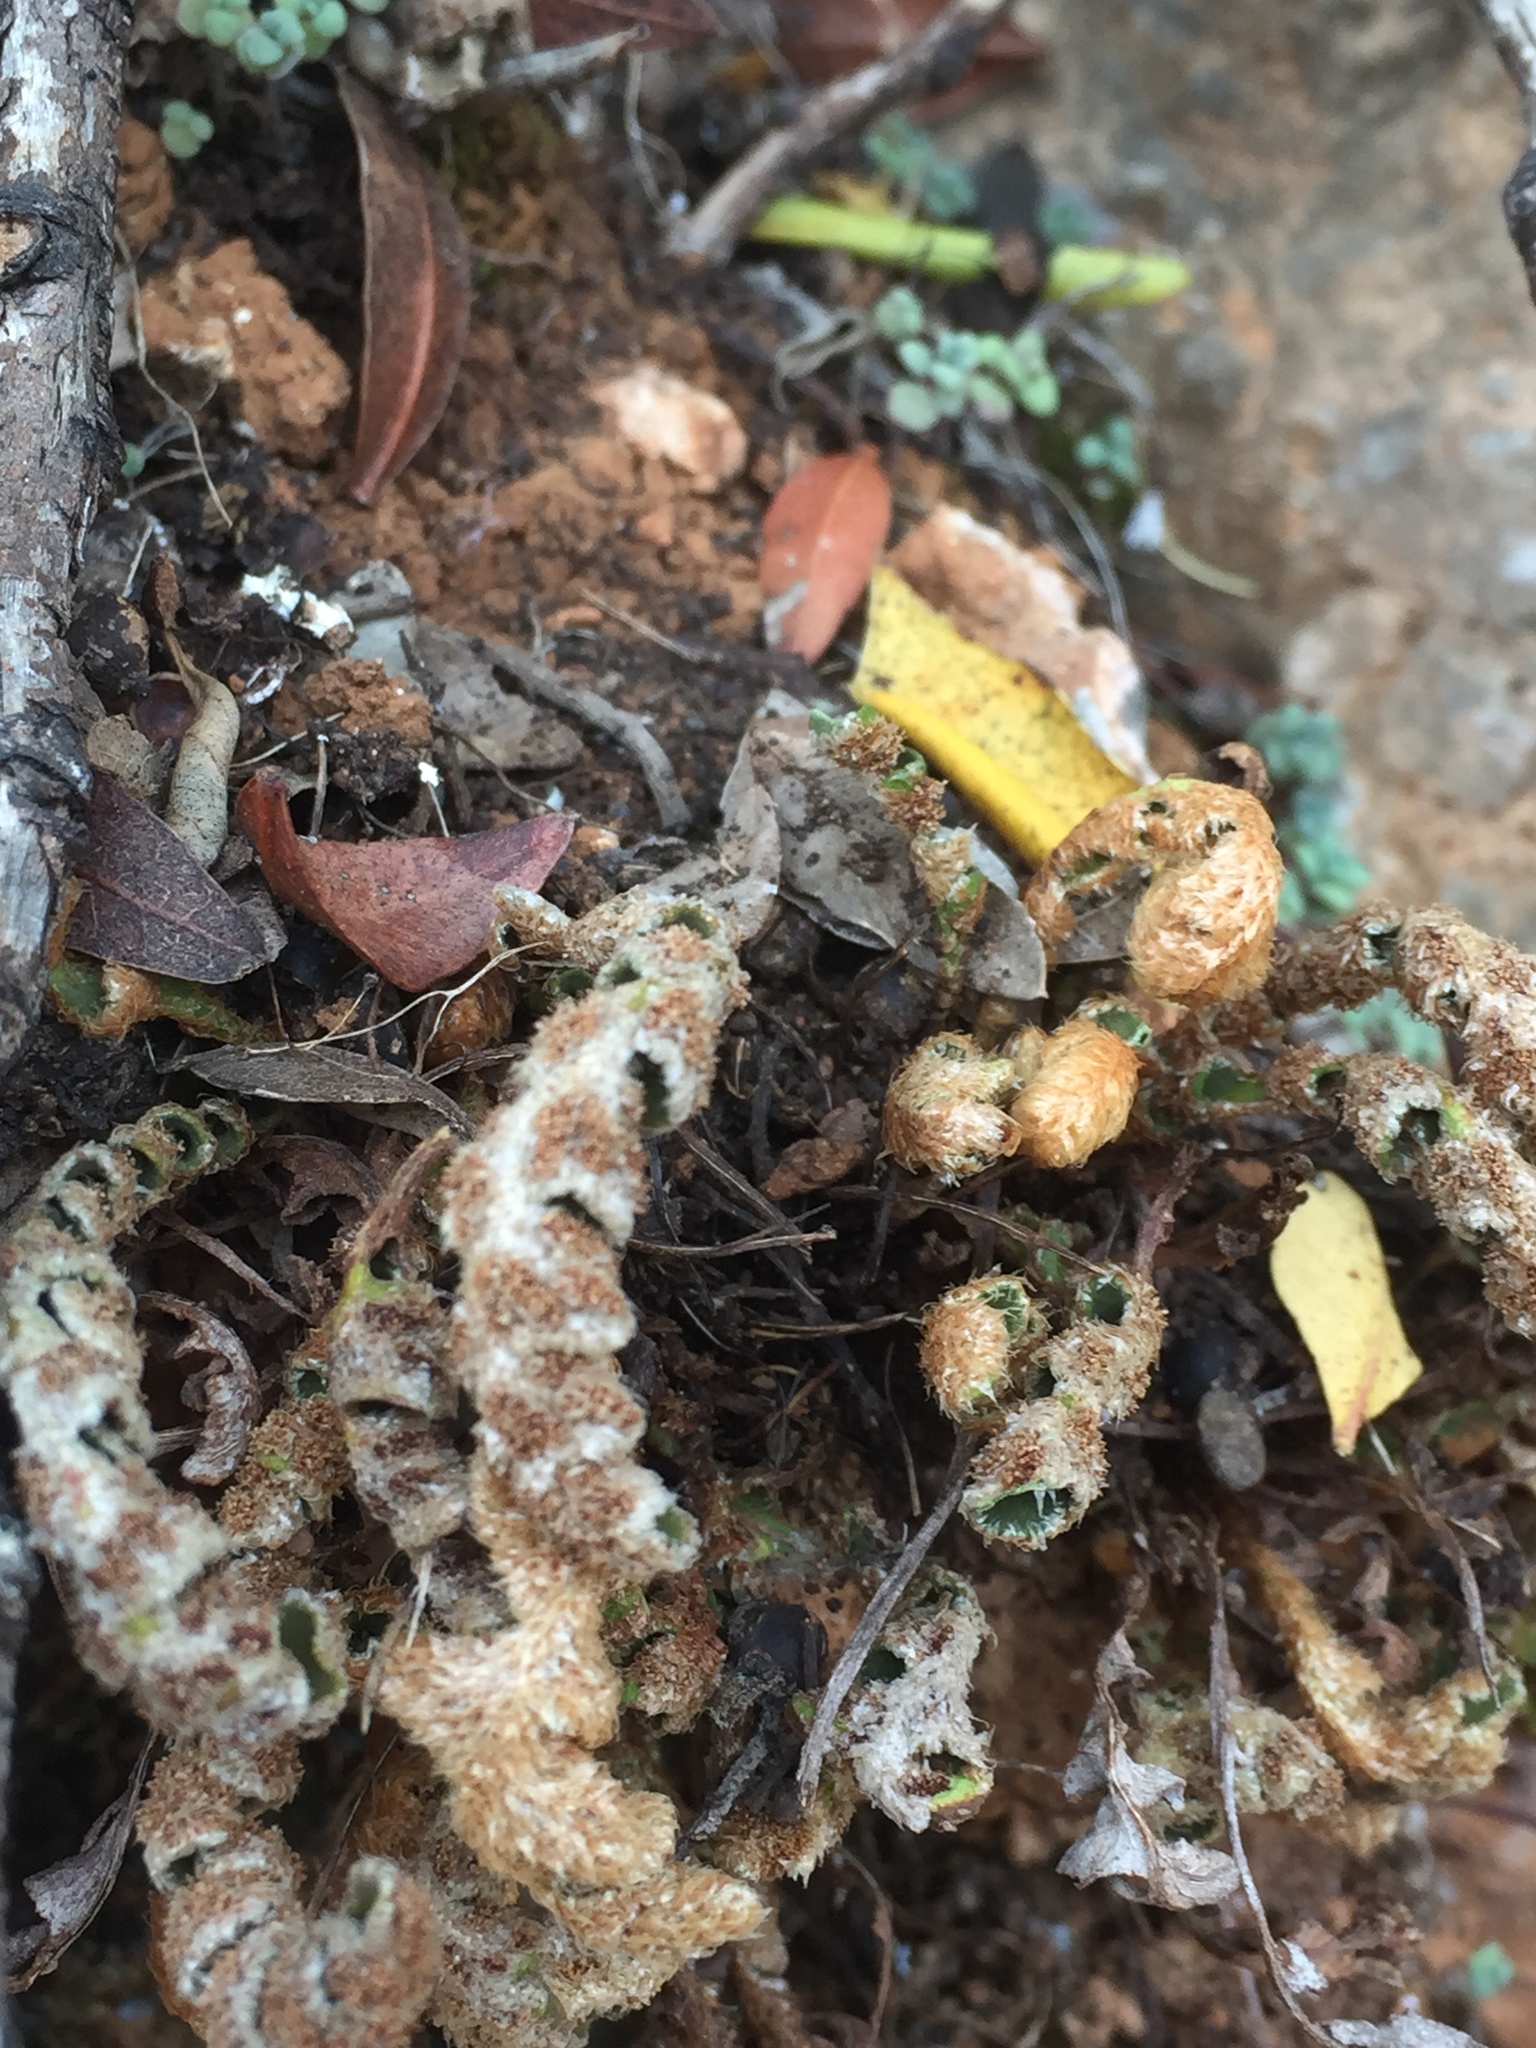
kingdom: Plantae
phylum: Tracheophyta
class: Polypodiopsida
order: Polypodiales
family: Aspleniaceae
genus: Asplenium
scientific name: Asplenium ceterach
